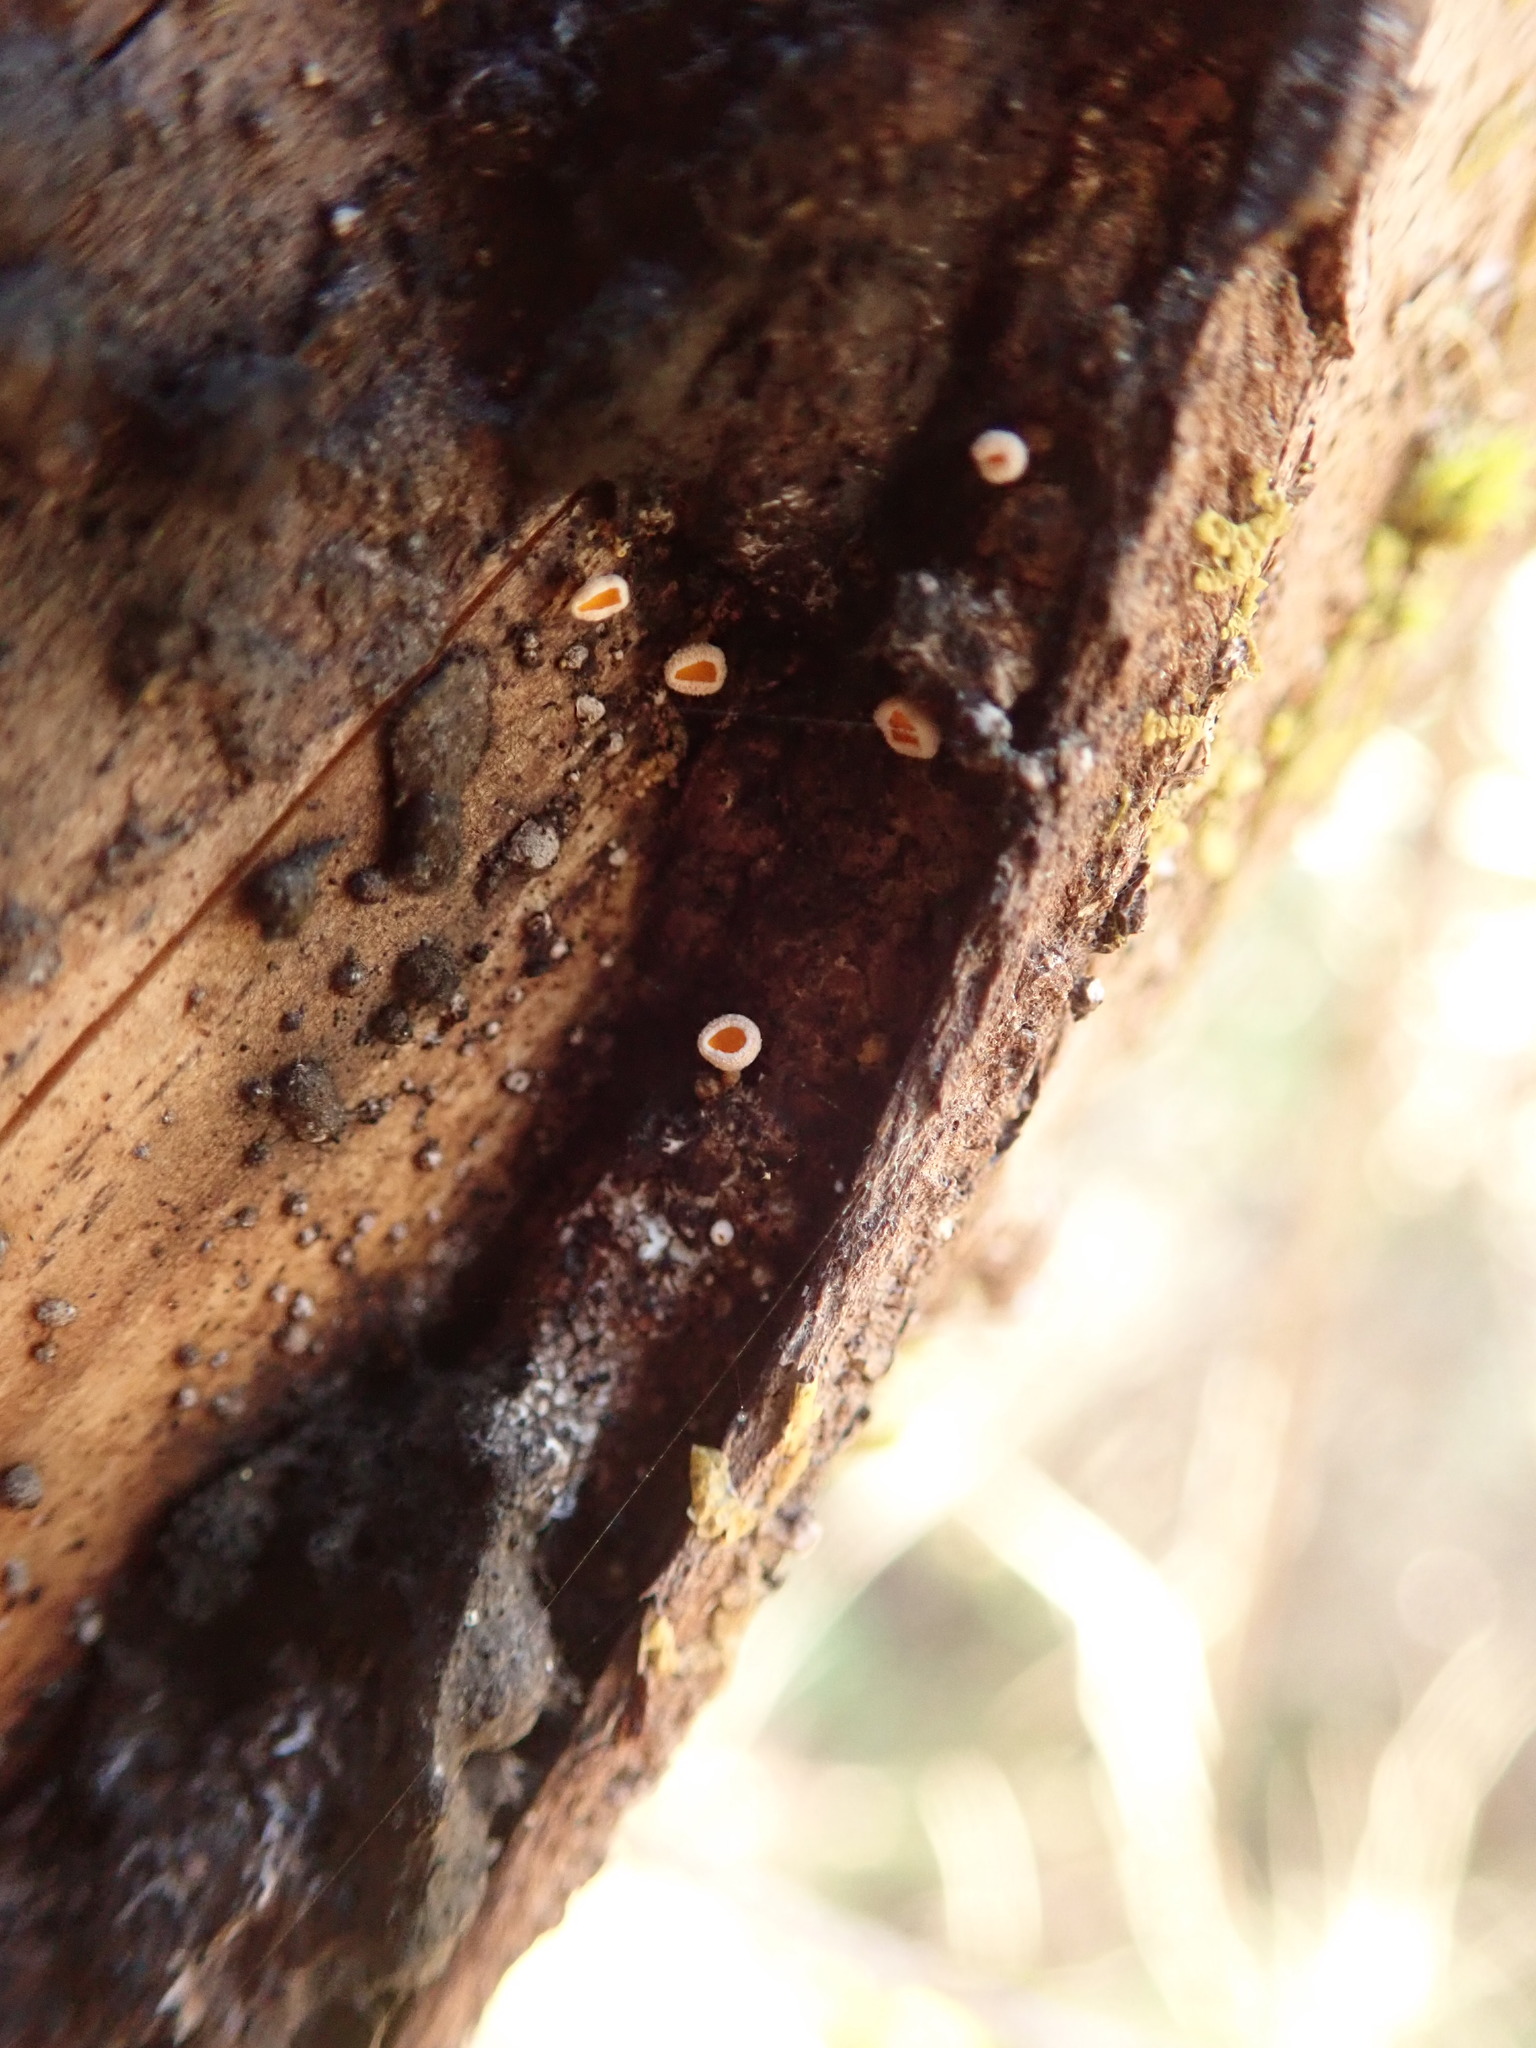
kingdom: Fungi
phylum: Ascomycota
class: Leotiomycetes
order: Helotiales
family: Lachnaceae
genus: Lachnellula
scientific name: Lachnellula resinaria
